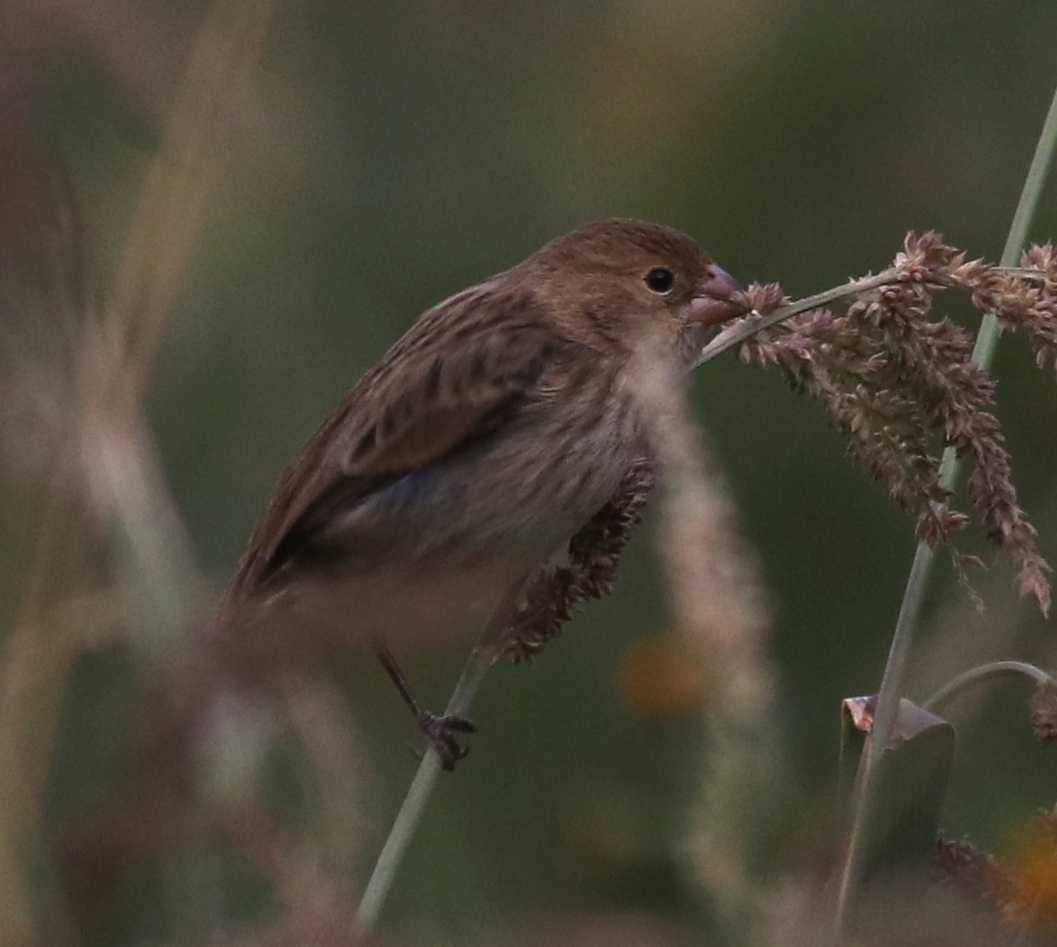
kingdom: Animalia
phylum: Chordata
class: Aves
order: Passeriformes
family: Thraupidae
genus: Sporophila
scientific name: Sporophila telasco
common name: Chestnut-throated seedeater
